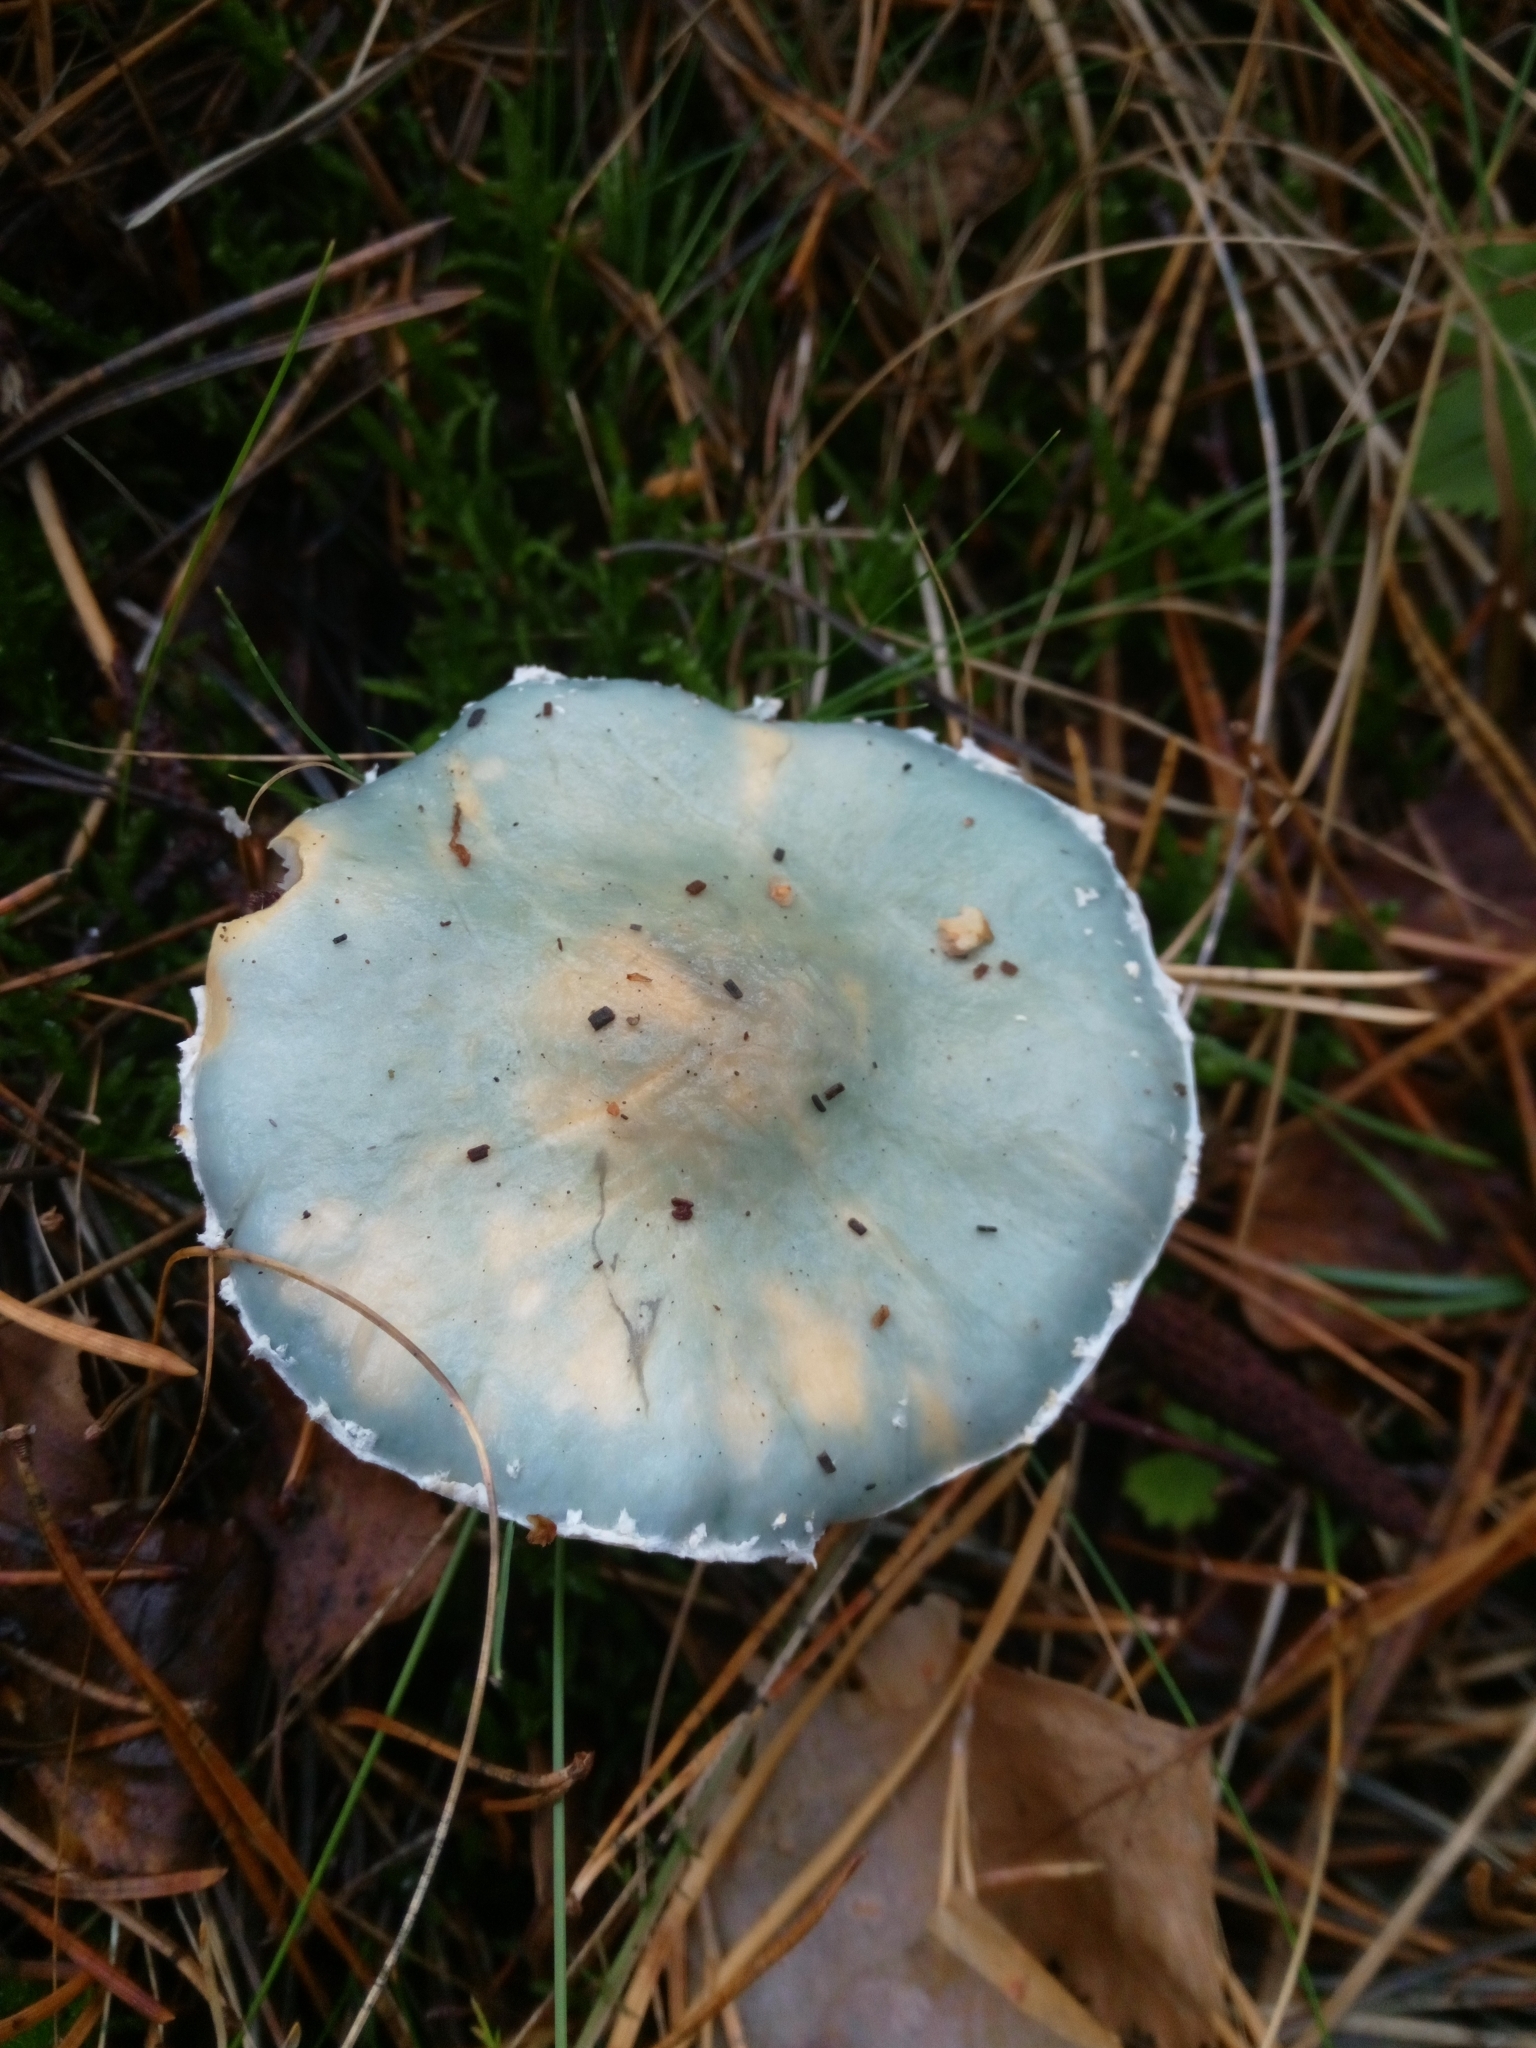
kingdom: Fungi
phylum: Basidiomycota
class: Agaricomycetes
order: Agaricales
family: Strophariaceae
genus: Stropharia
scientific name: Stropharia aeruginosa
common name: Verdigris roundhead
